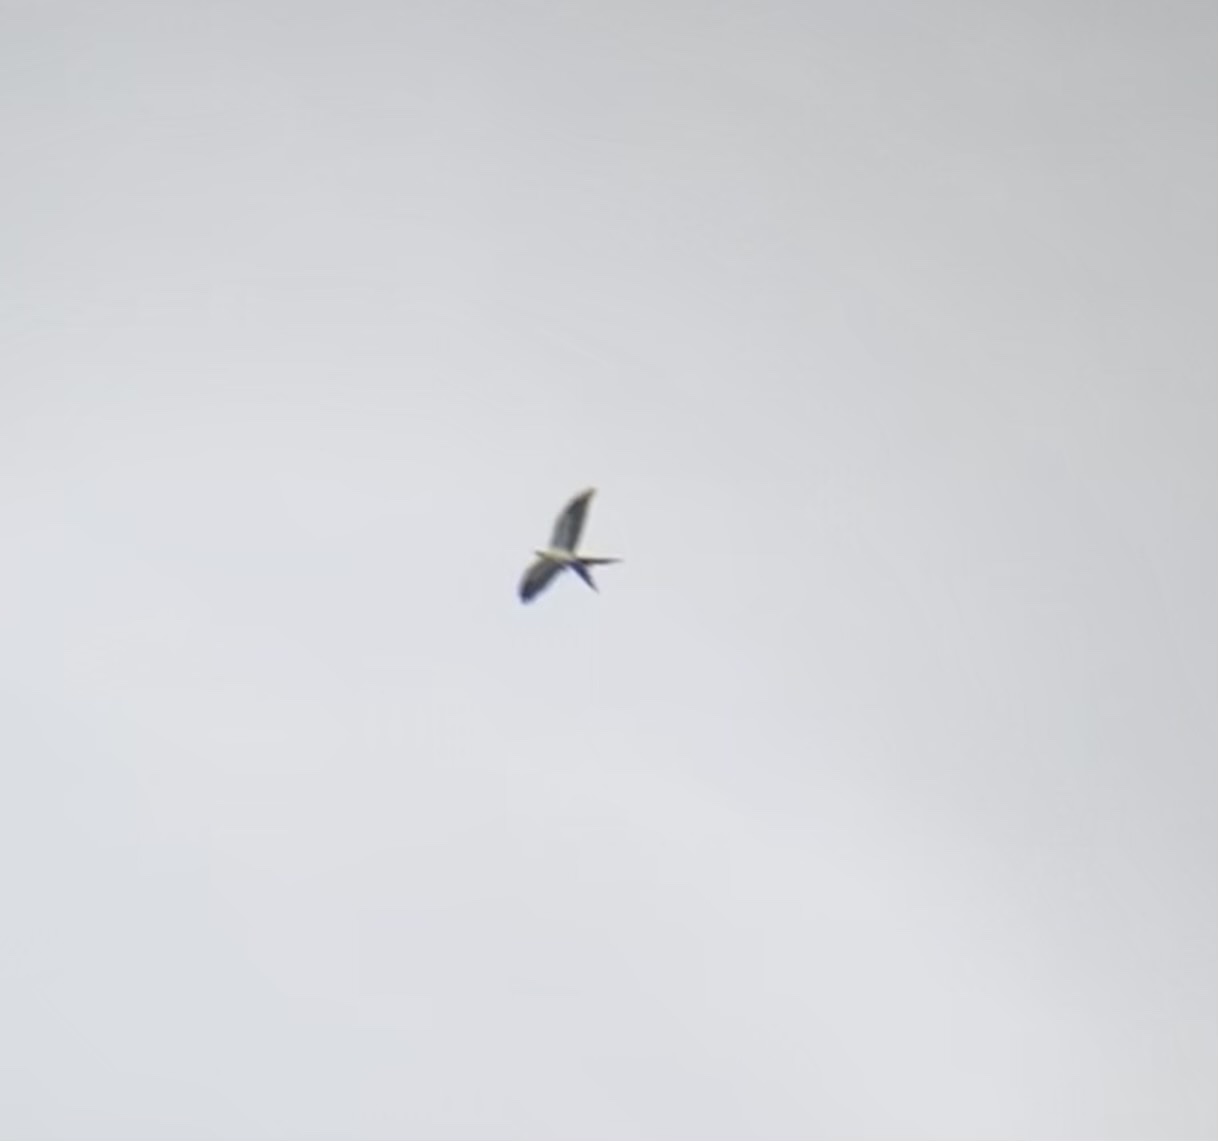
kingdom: Animalia
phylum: Chordata
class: Aves
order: Accipitriformes
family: Accipitridae
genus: Elanoides
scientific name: Elanoides forficatus
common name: Swallow-tailed kite
